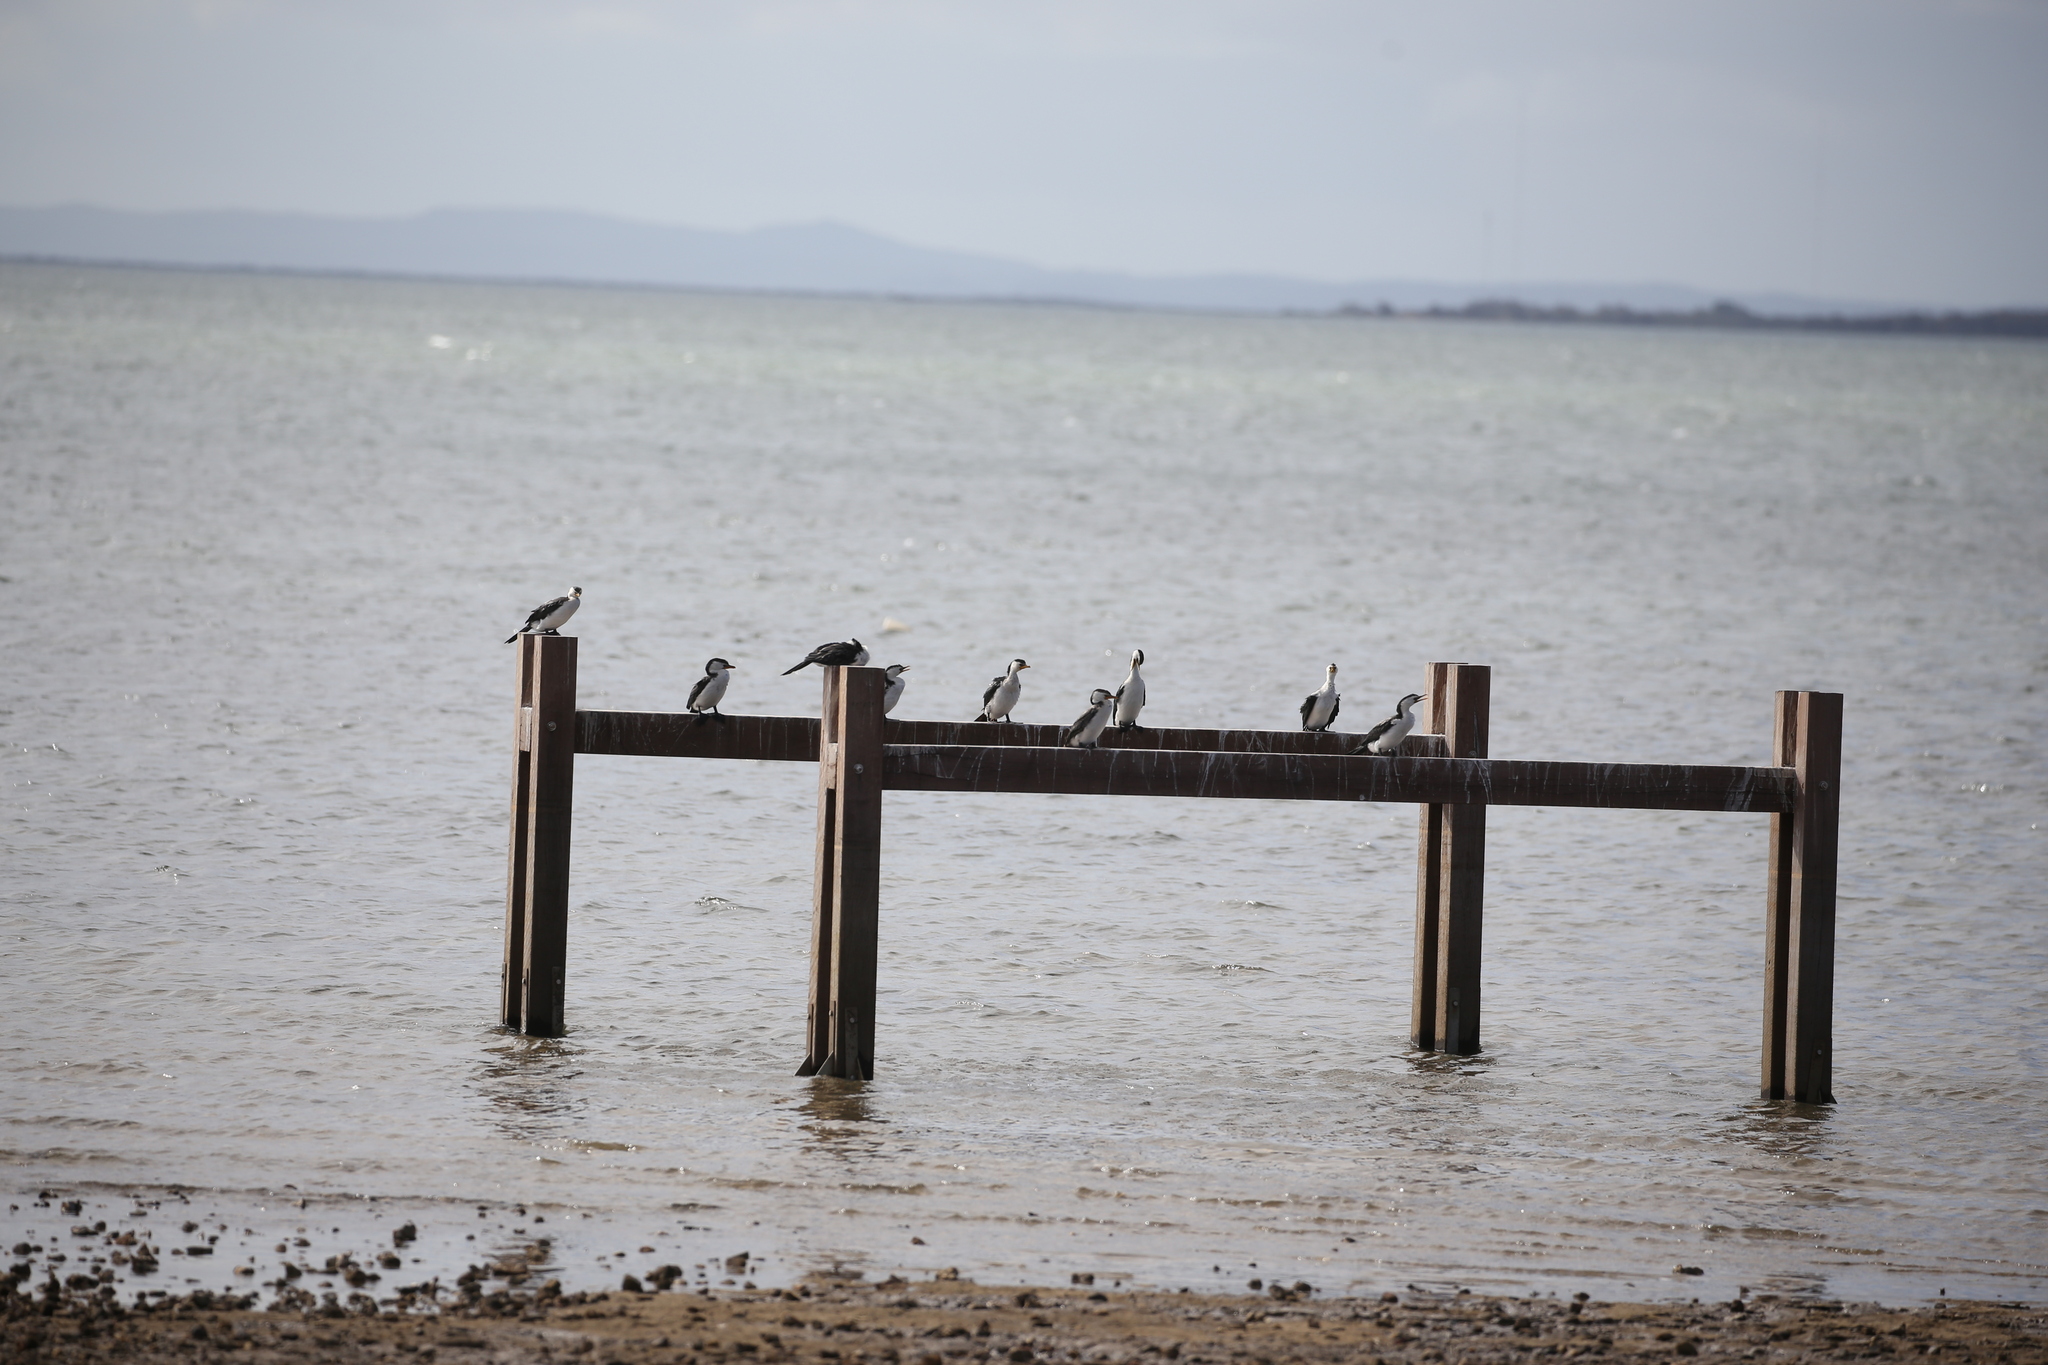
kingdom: Animalia
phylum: Chordata
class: Aves
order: Suliformes
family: Phalacrocoracidae
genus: Microcarbo
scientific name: Microcarbo melanoleucos
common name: Little pied cormorant
